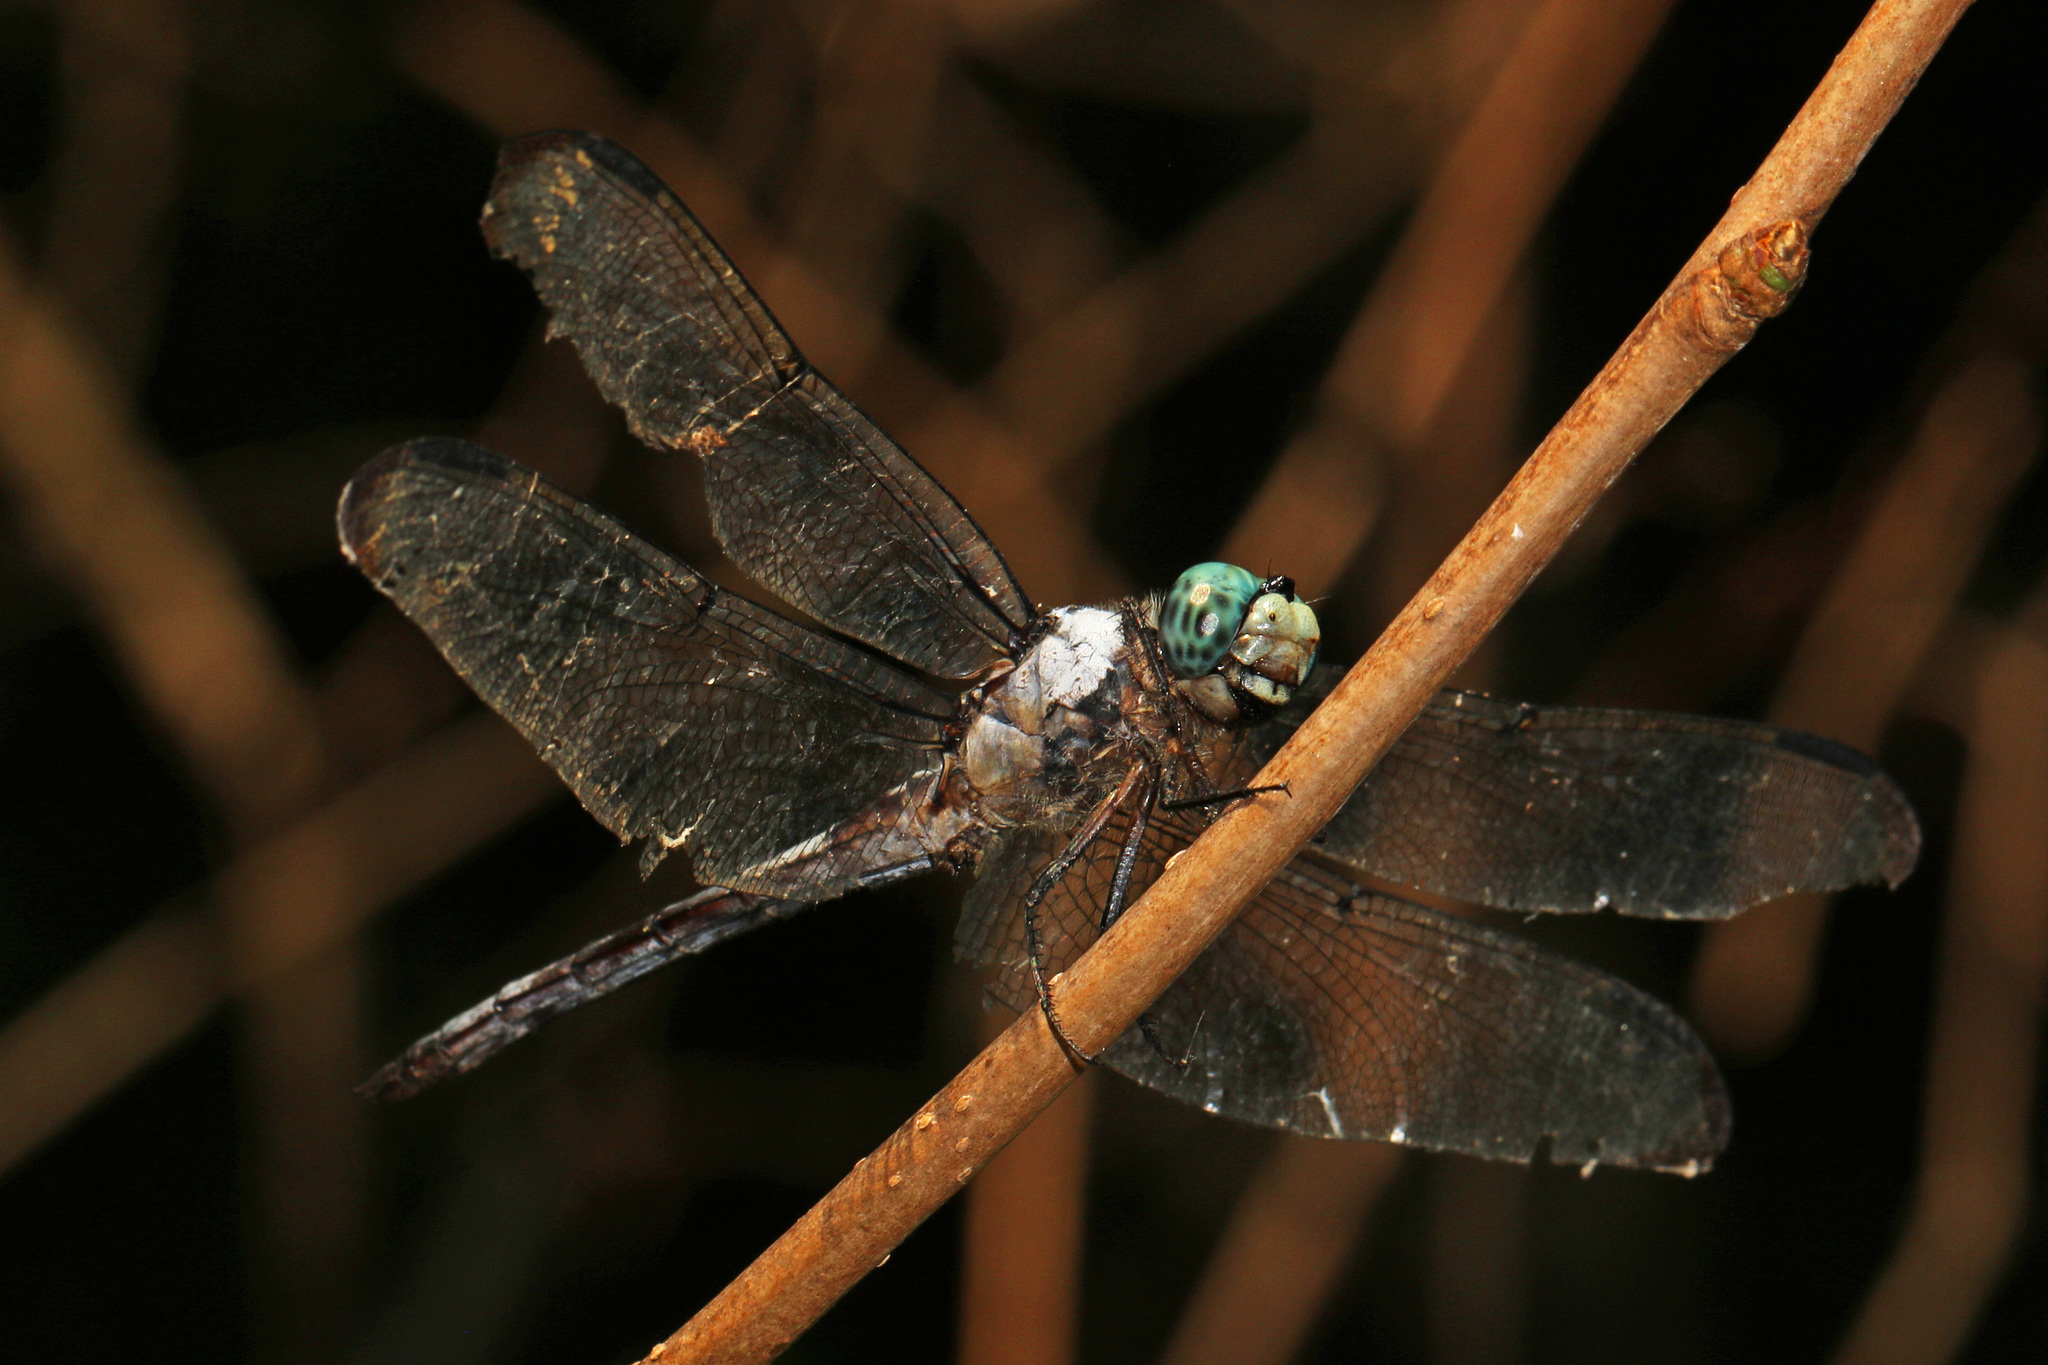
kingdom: Animalia
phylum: Arthropoda
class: Insecta
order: Odonata
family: Libellulidae
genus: Libellula
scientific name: Libellula vibrans
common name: Great blue skimmer
